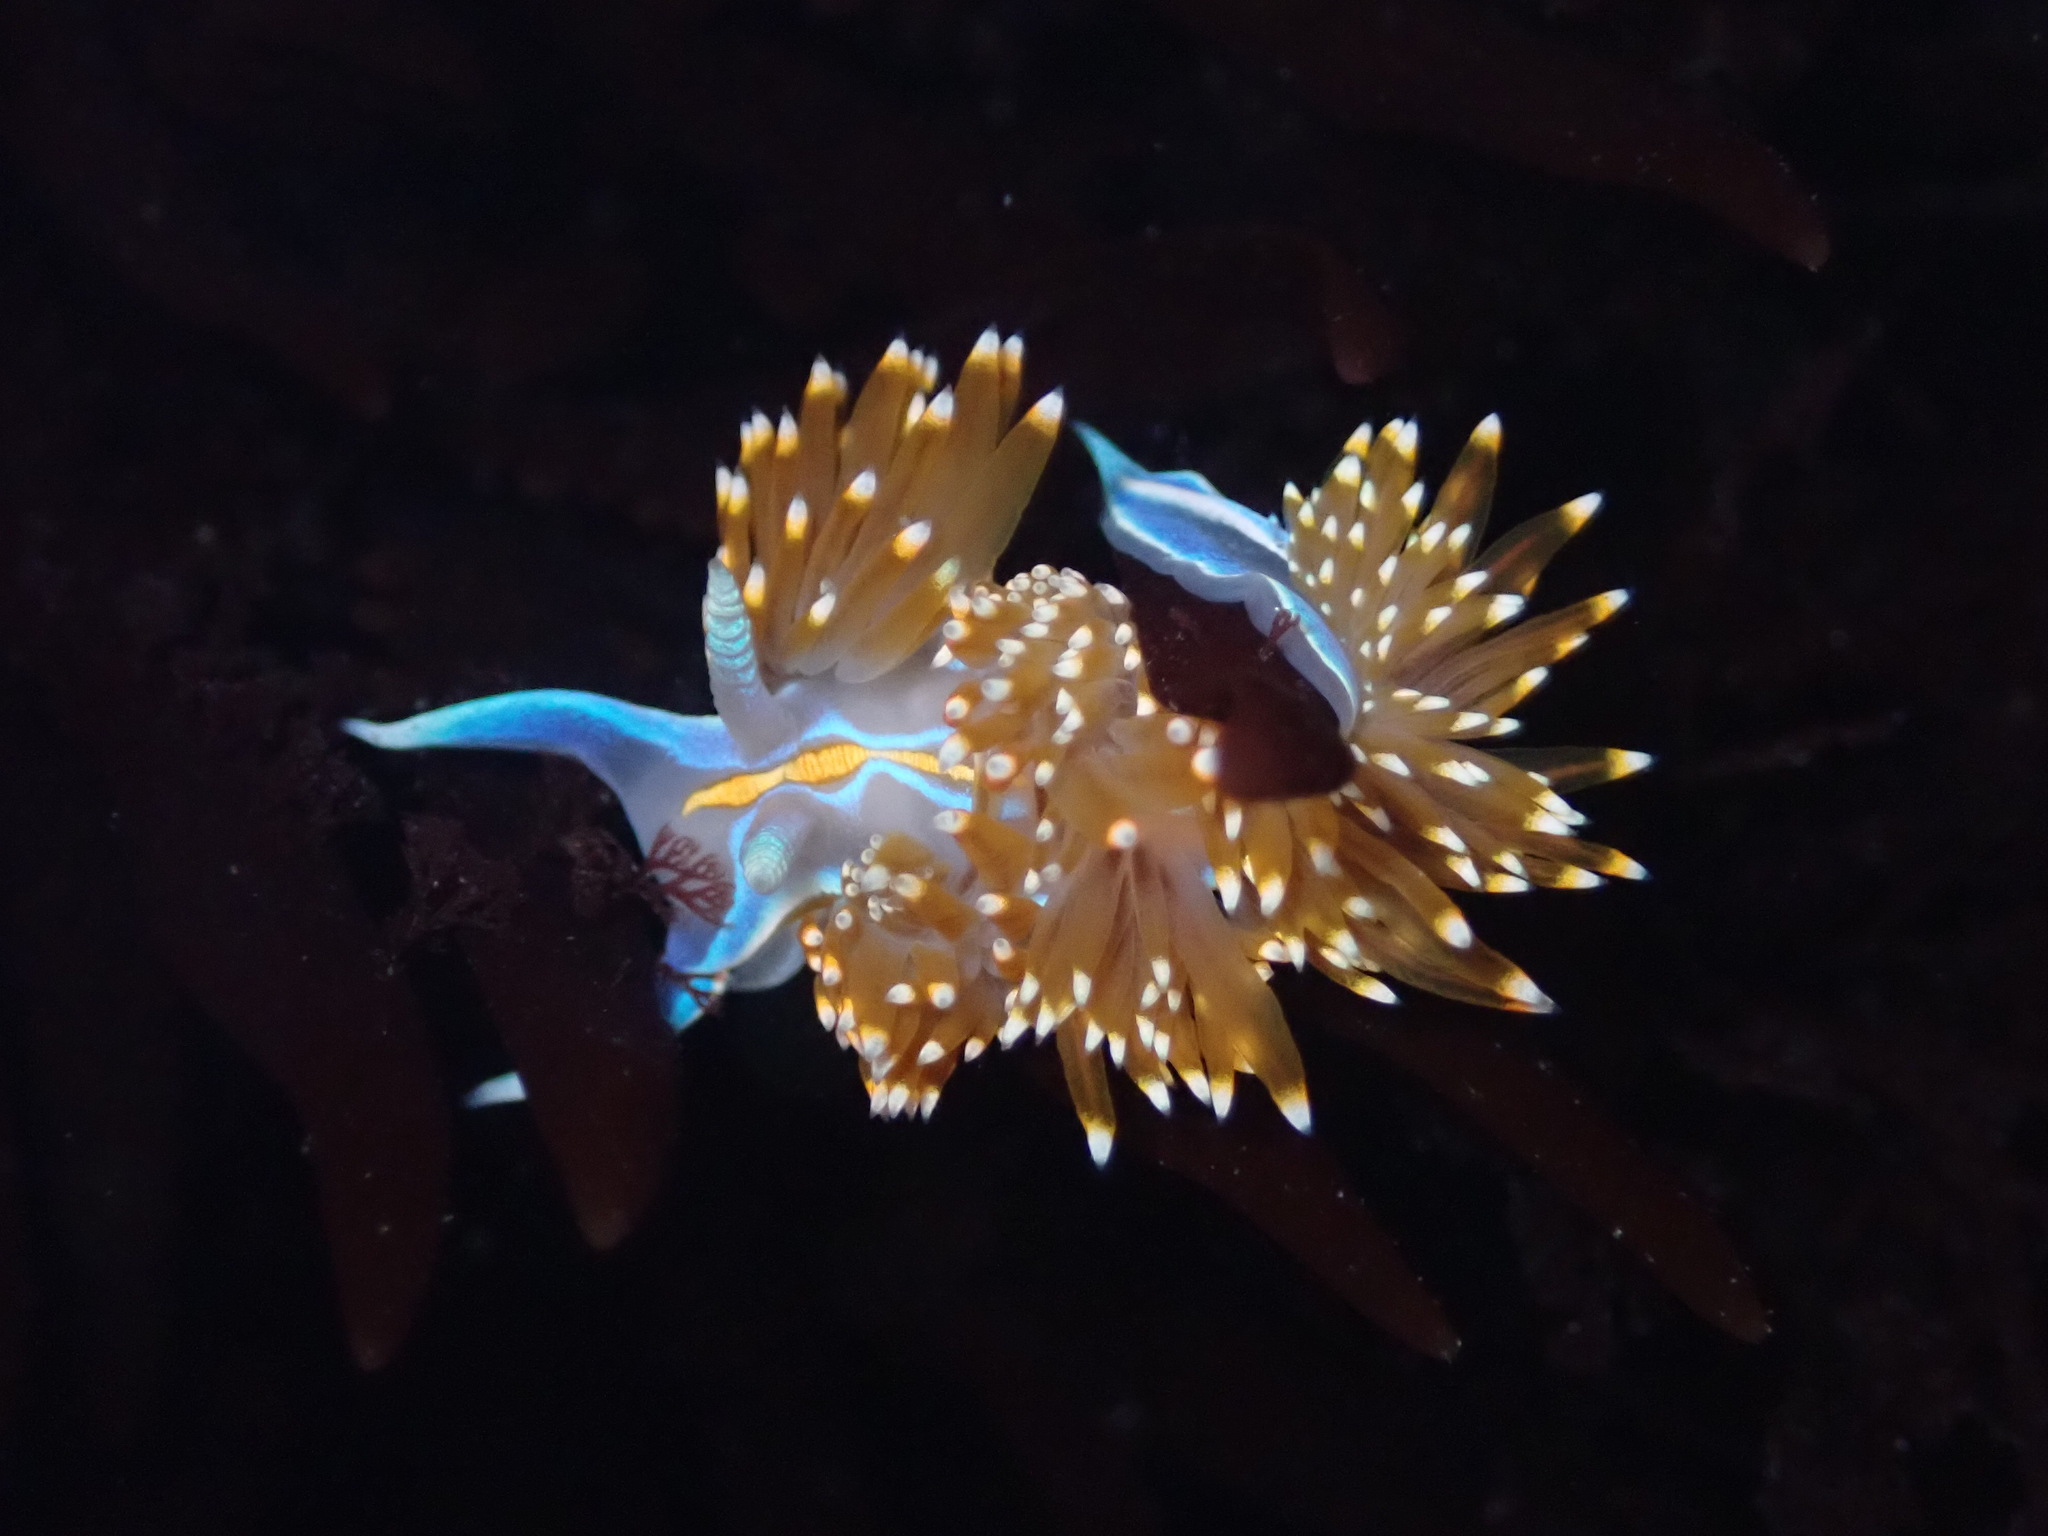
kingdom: Animalia
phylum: Mollusca
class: Gastropoda
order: Nudibranchia
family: Myrrhinidae
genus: Hermissenda
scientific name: Hermissenda opalescens
